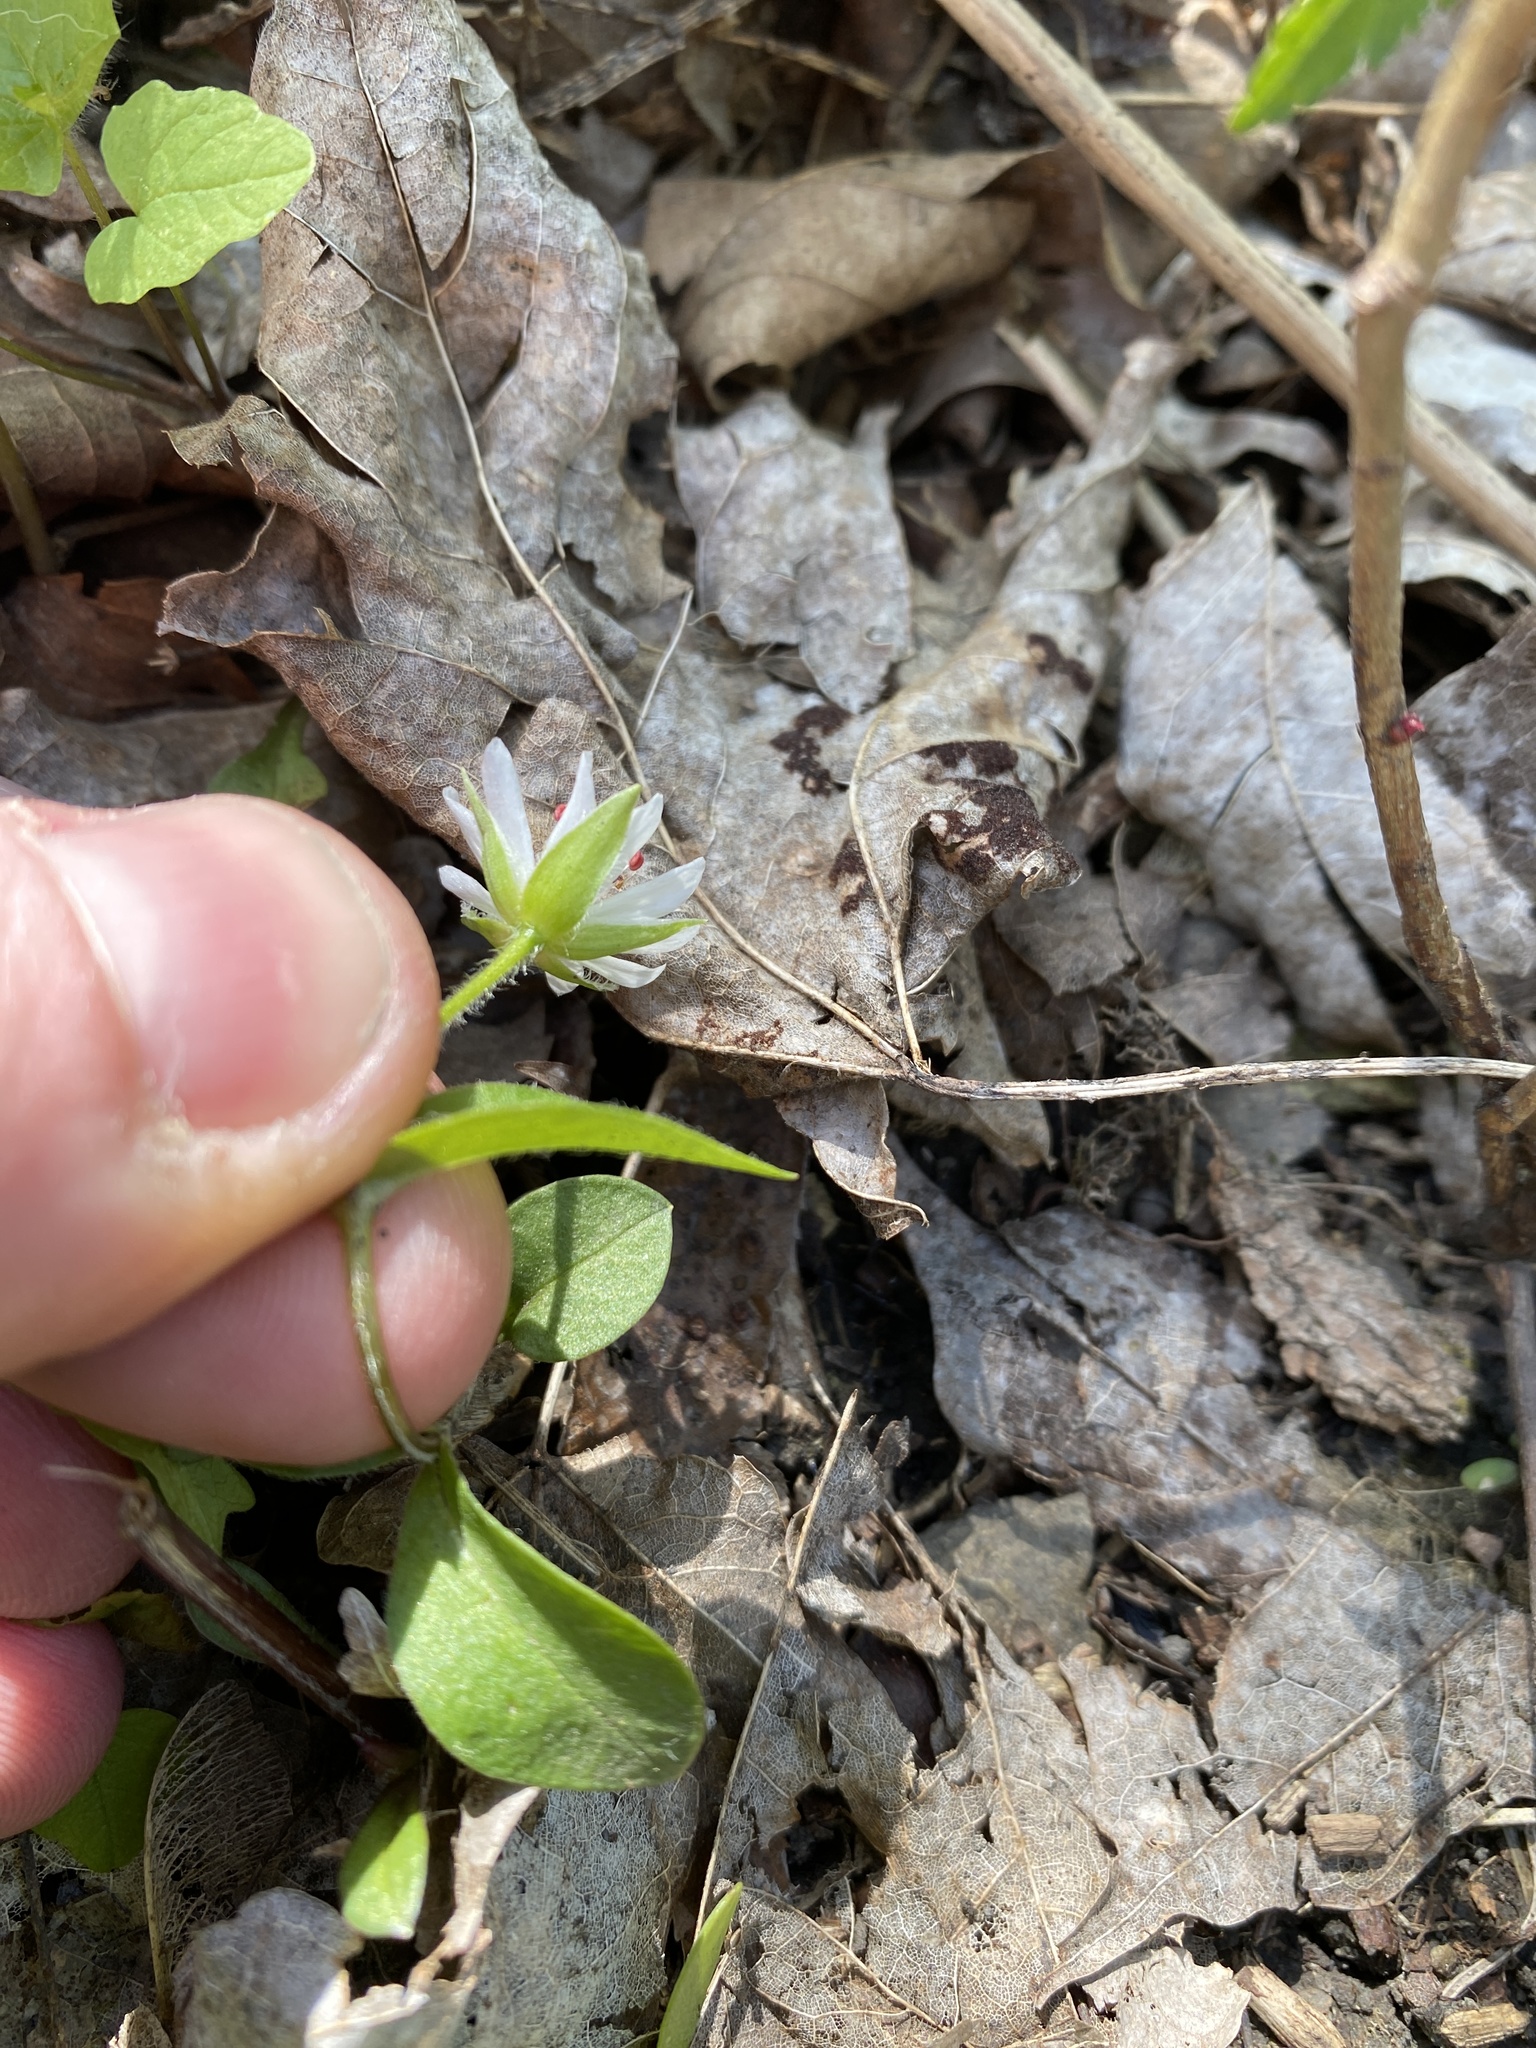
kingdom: Plantae
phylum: Tracheophyta
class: Magnoliopsida
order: Caryophyllales
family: Caryophyllaceae
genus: Stellaria
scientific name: Stellaria corei
